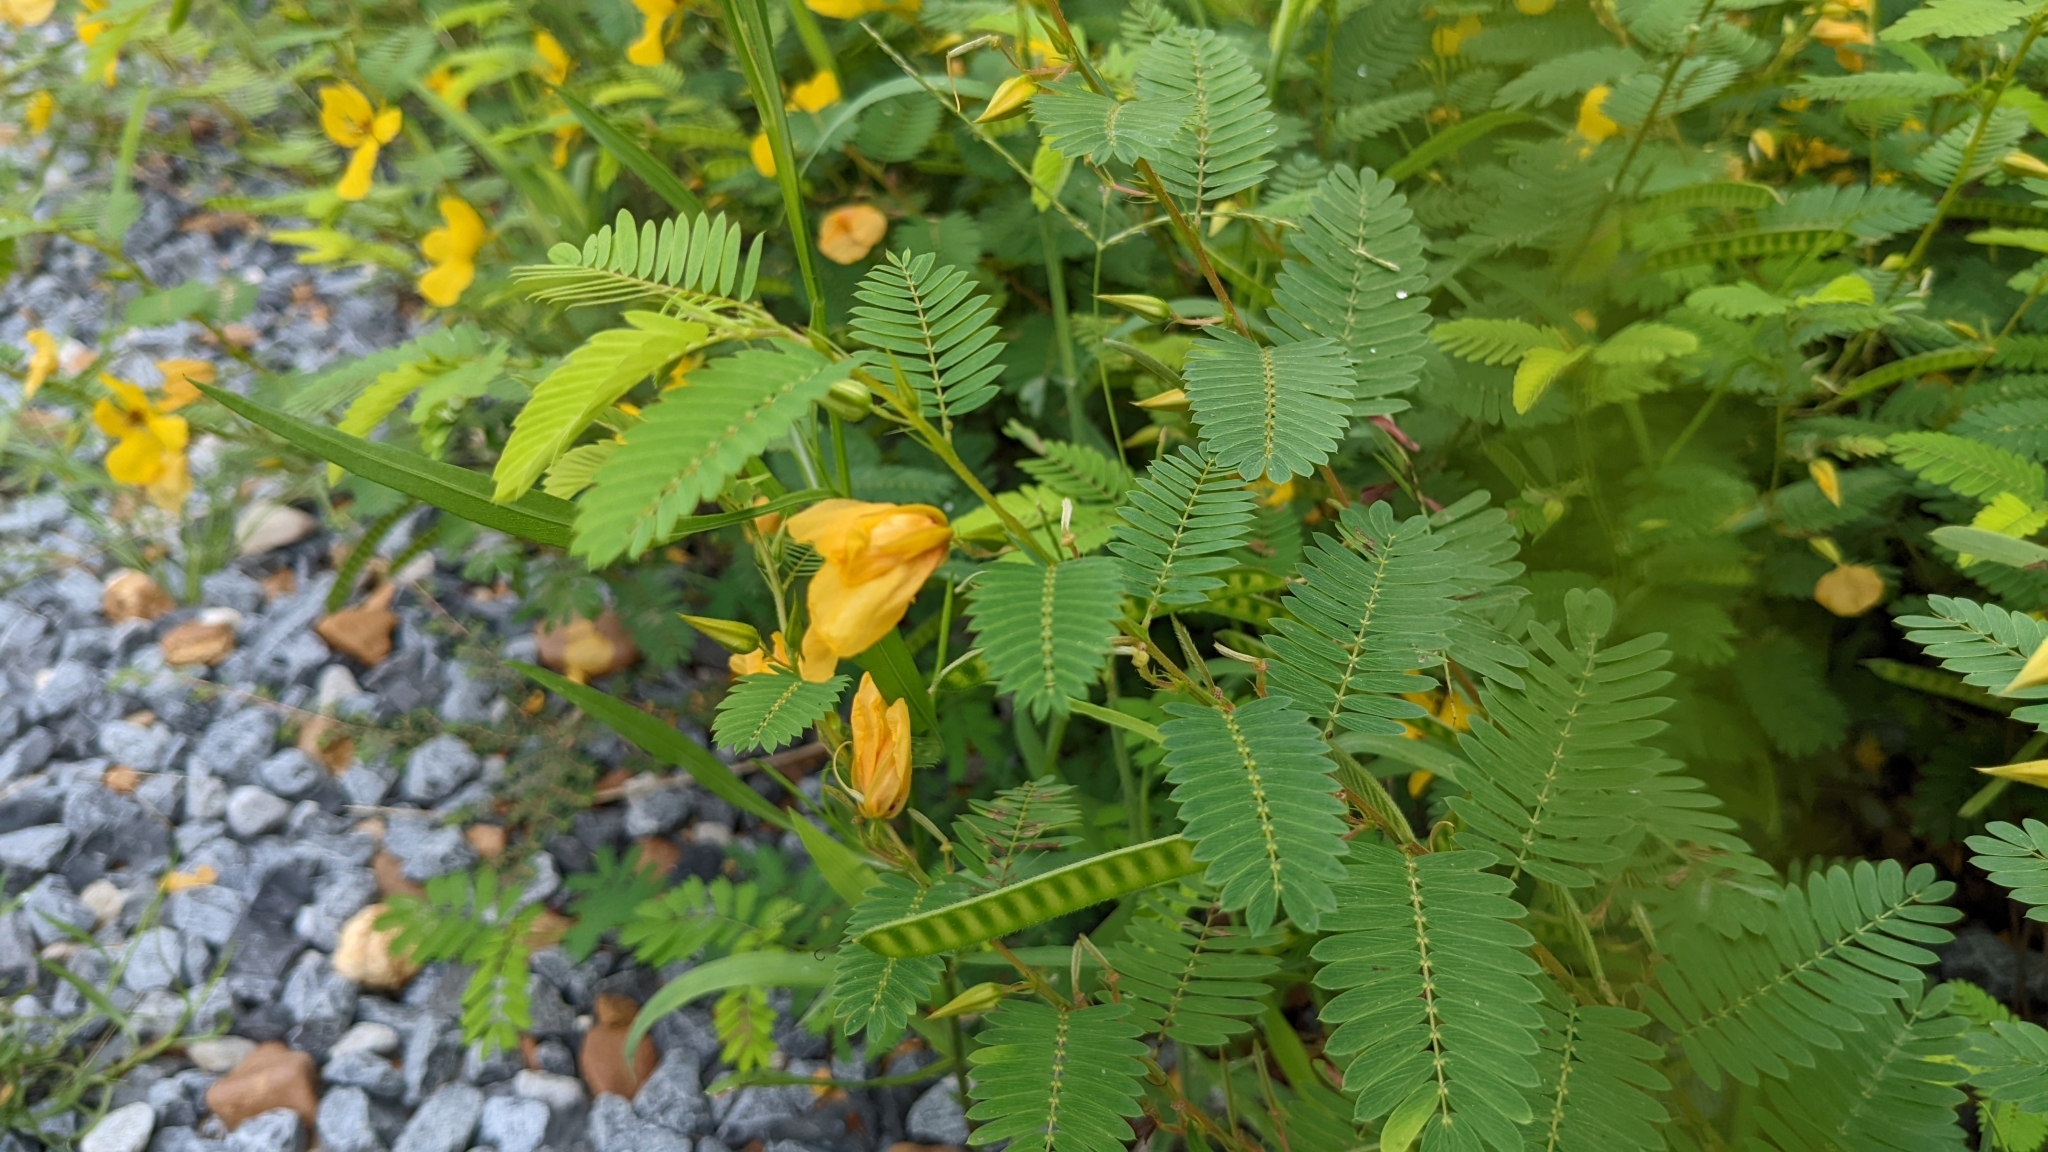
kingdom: Plantae
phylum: Tracheophyta
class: Magnoliopsida
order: Fabales
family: Fabaceae
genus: Chamaecrista
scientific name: Chamaecrista fasciculata
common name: Golden cassia
